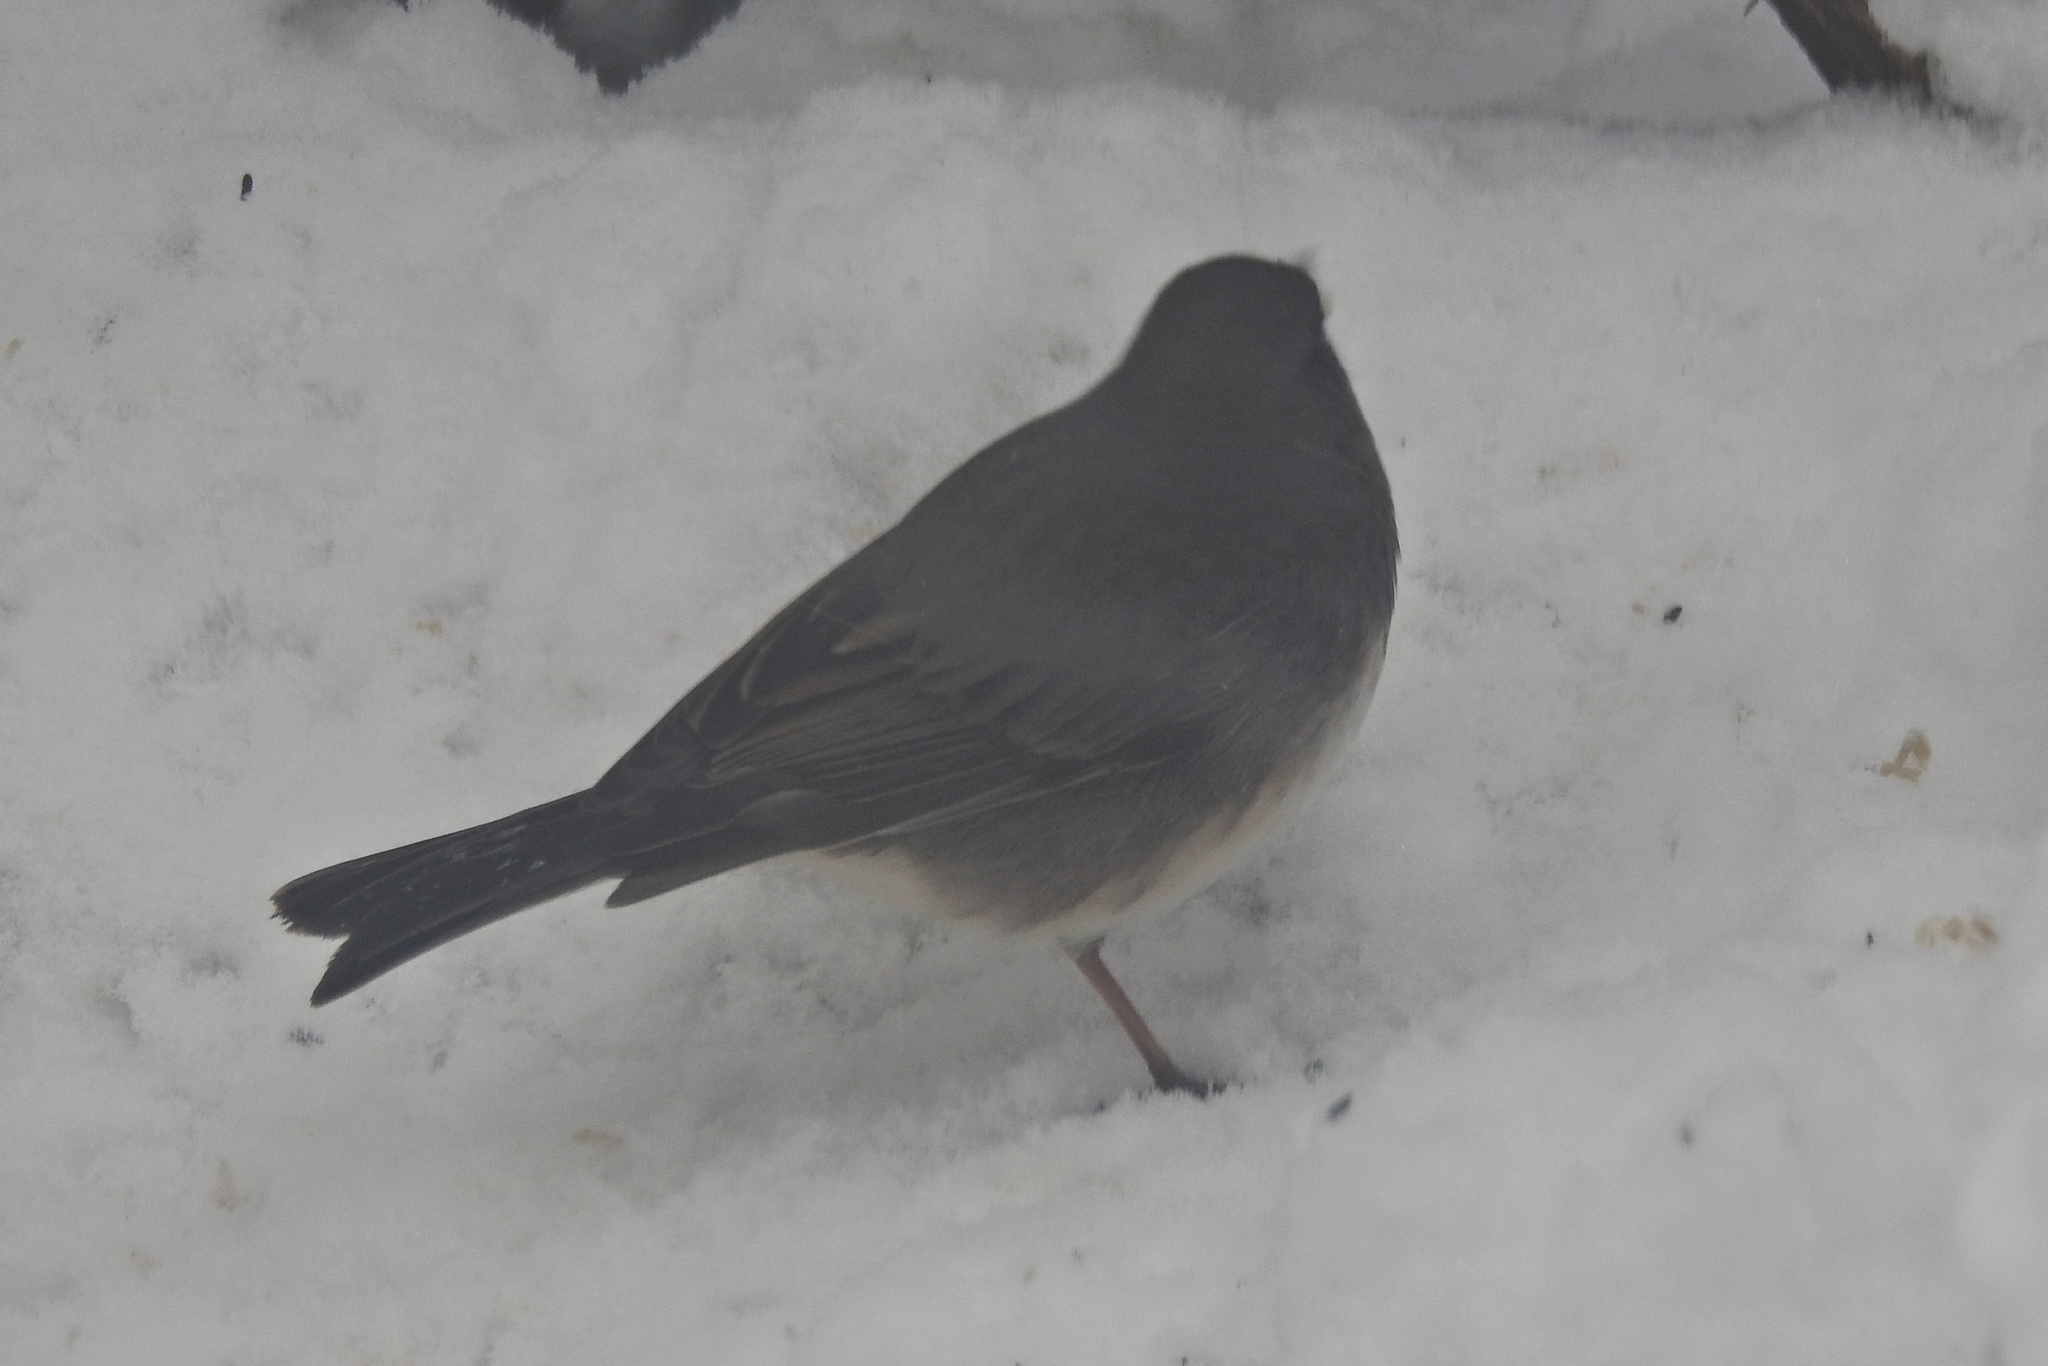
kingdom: Animalia
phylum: Chordata
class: Aves
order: Passeriformes
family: Passerellidae
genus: Junco
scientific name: Junco hyemalis
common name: Dark-eyed junco
